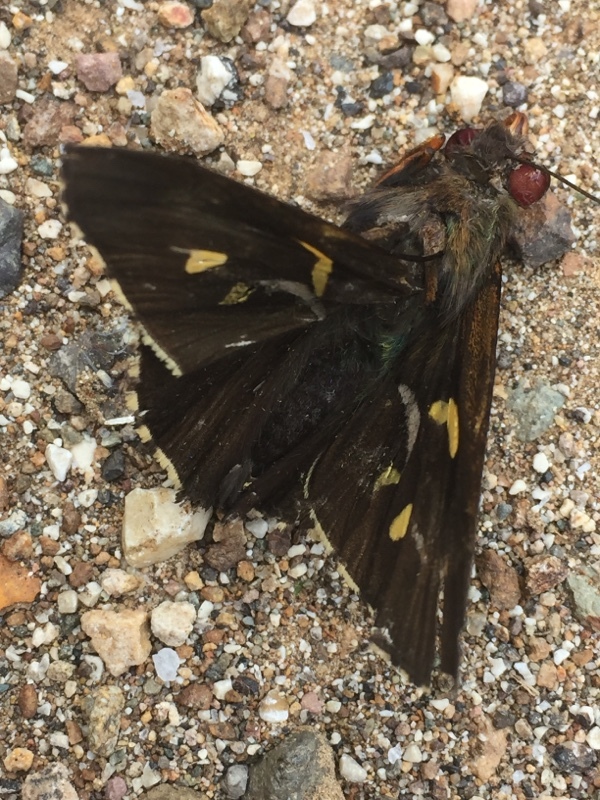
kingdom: Animalia
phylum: Arthropoda
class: Insecta
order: Lepidoptera
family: Hesperiidae
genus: Perichares
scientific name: Perichares philetes
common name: Green-backed ruby-eye
